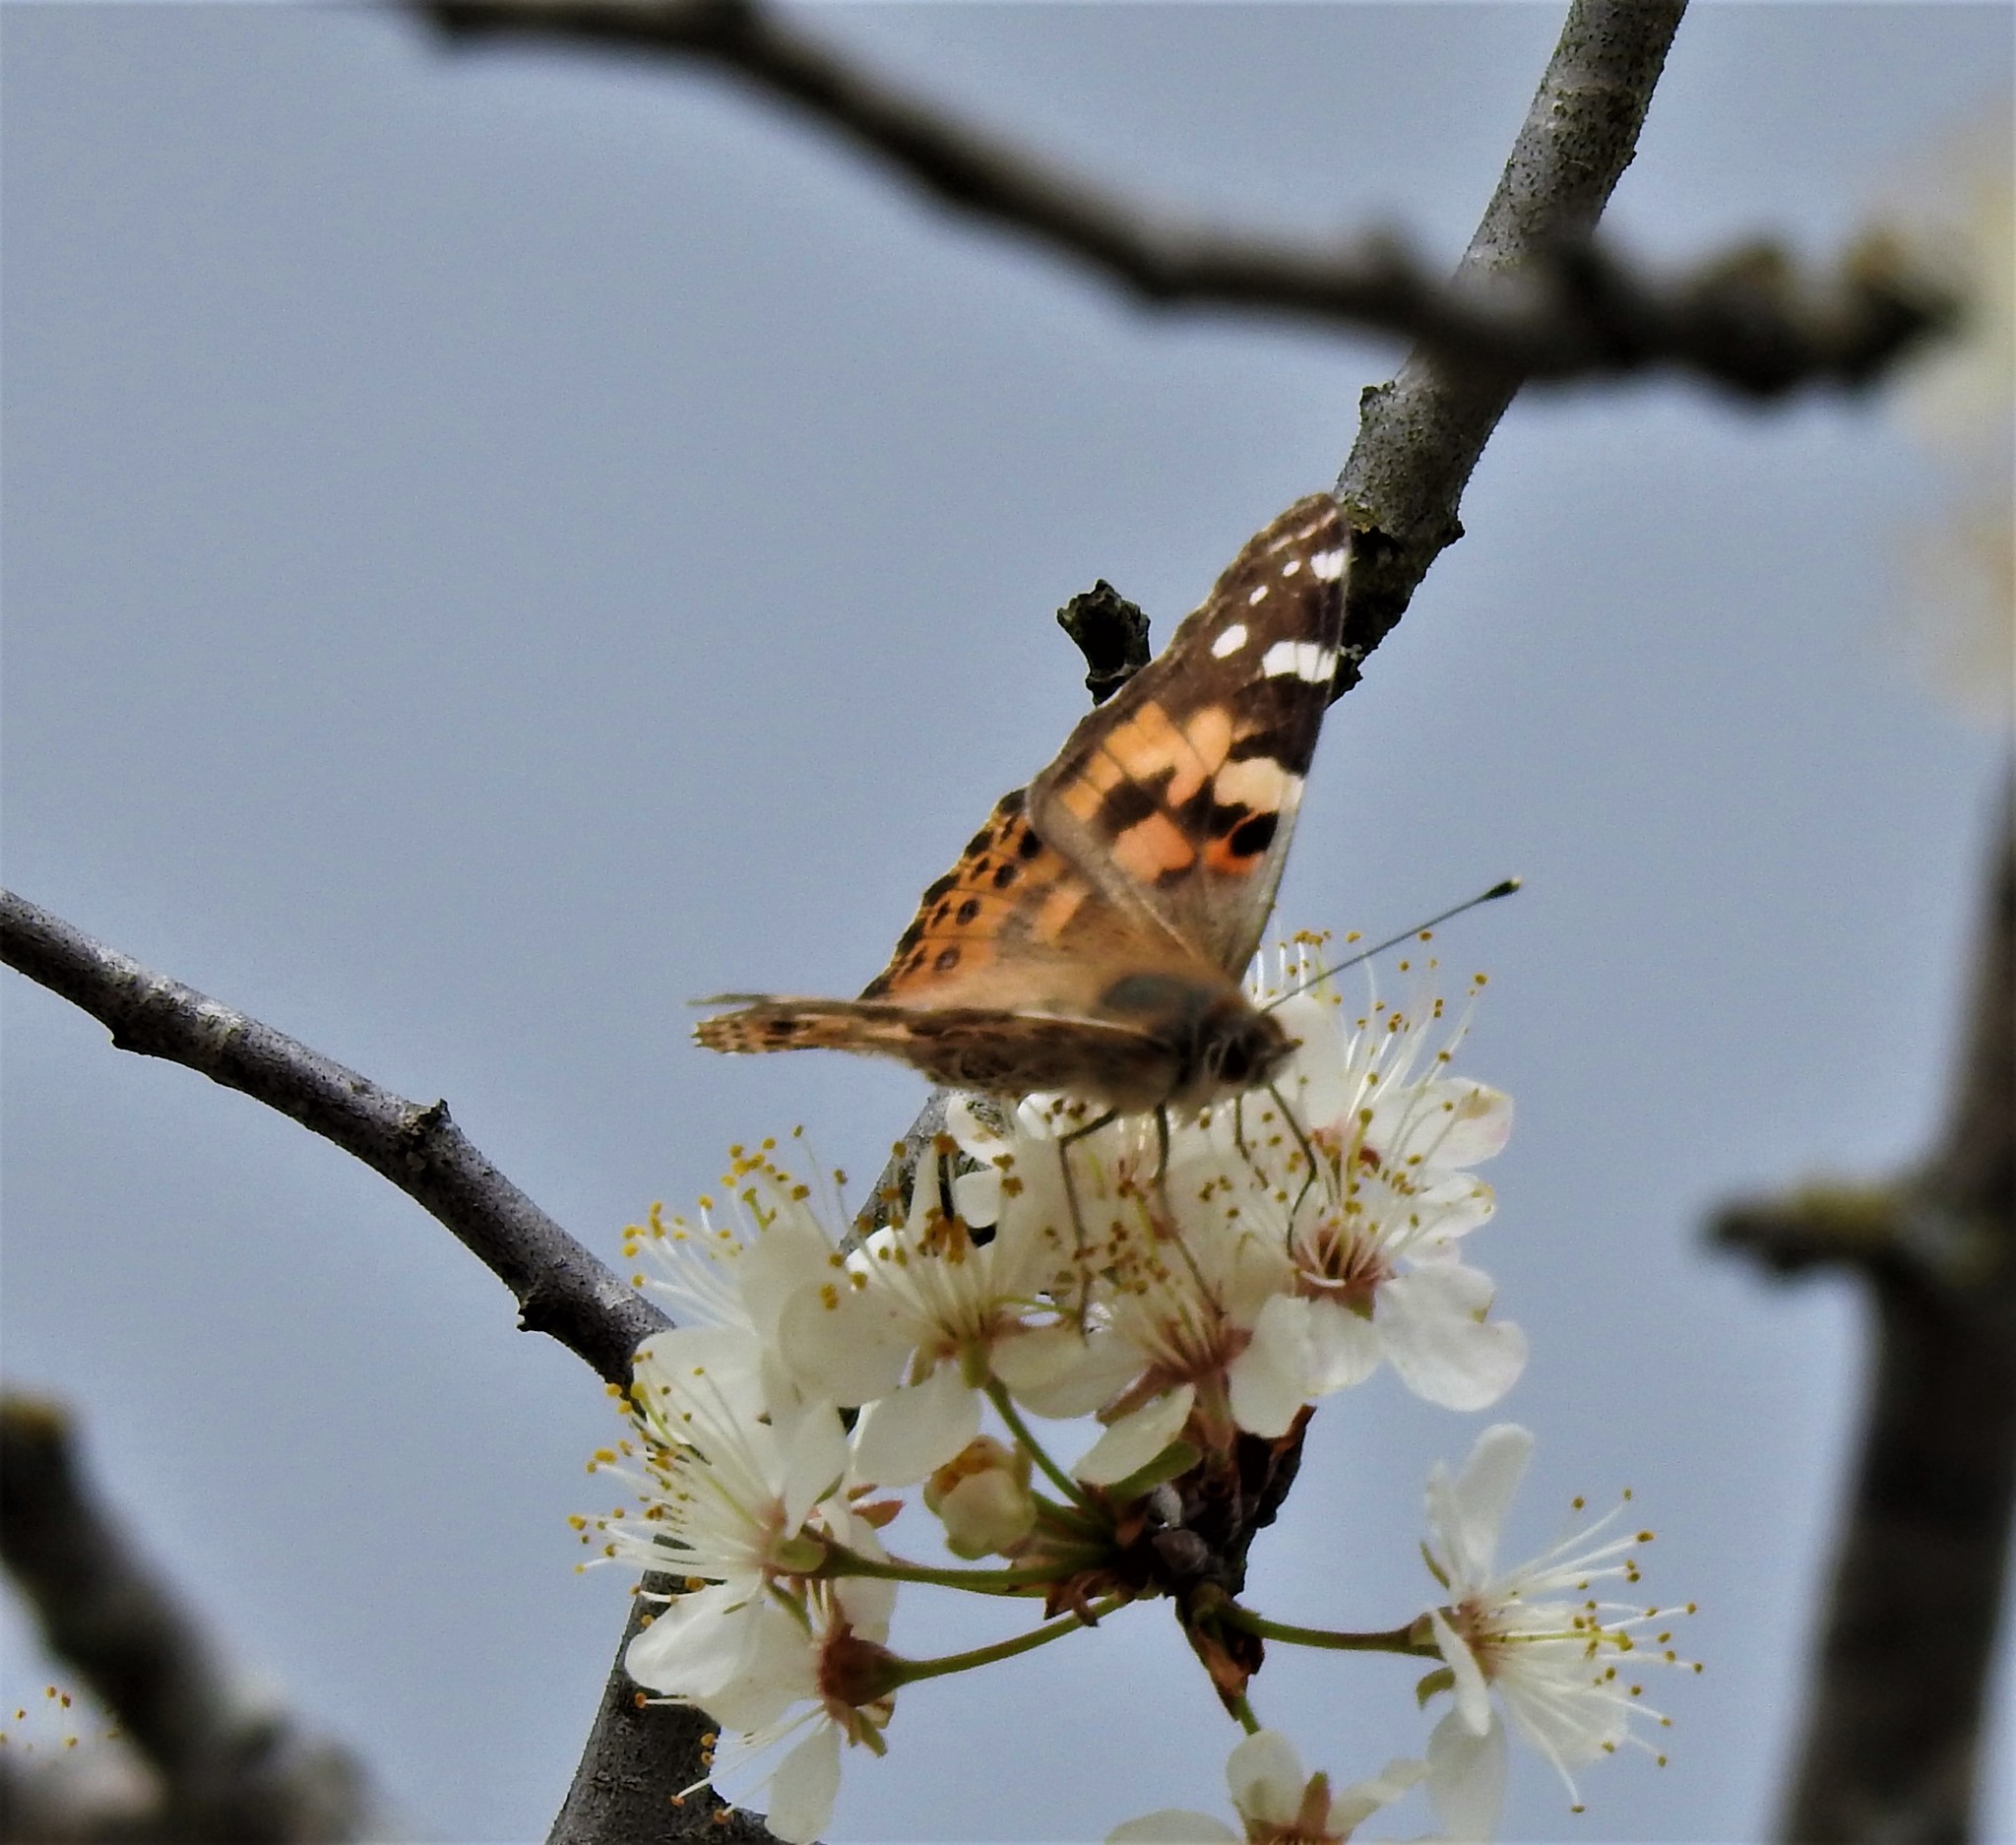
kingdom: Animalia
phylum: Arthropoda
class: Insecta
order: Lepidoptera
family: Nymphalidae
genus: Vanessa
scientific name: Vanessa cardui
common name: Painted lady
